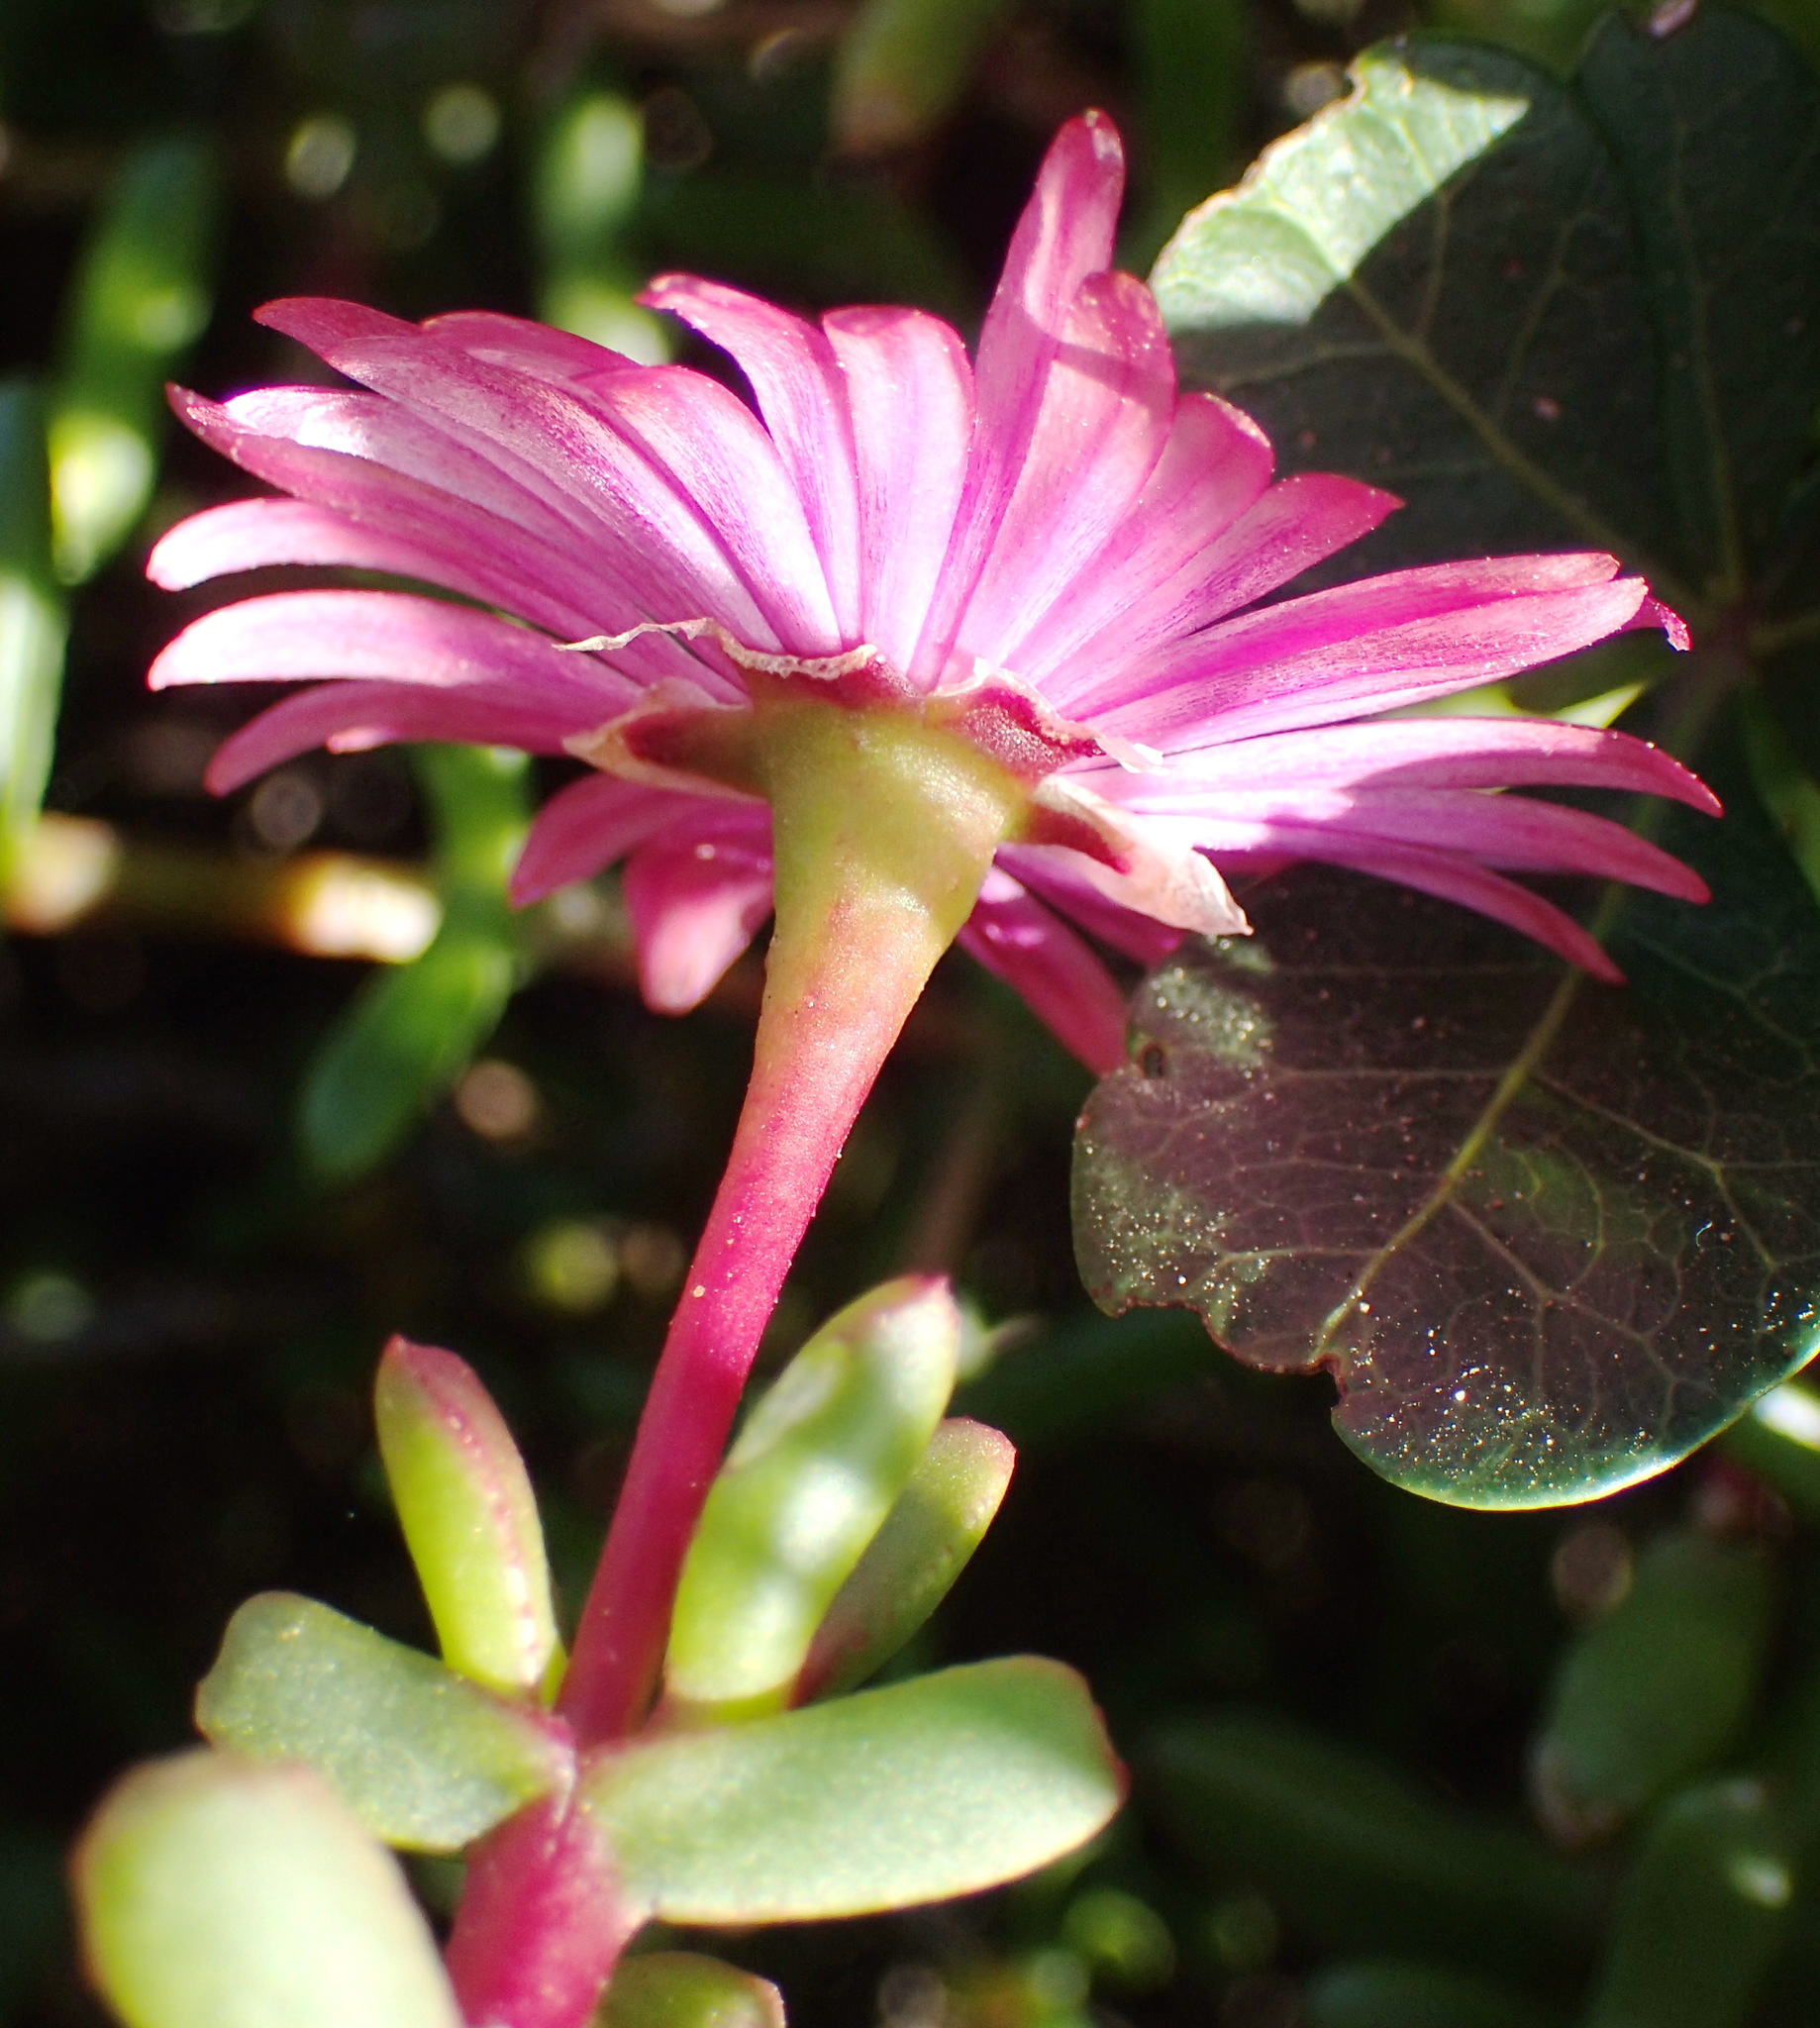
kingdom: Plantae
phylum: Tracheophyta
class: Magnoliopsida
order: Caryophyllales
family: Aizoaceae
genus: Delosperma
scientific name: Delosperma virens
